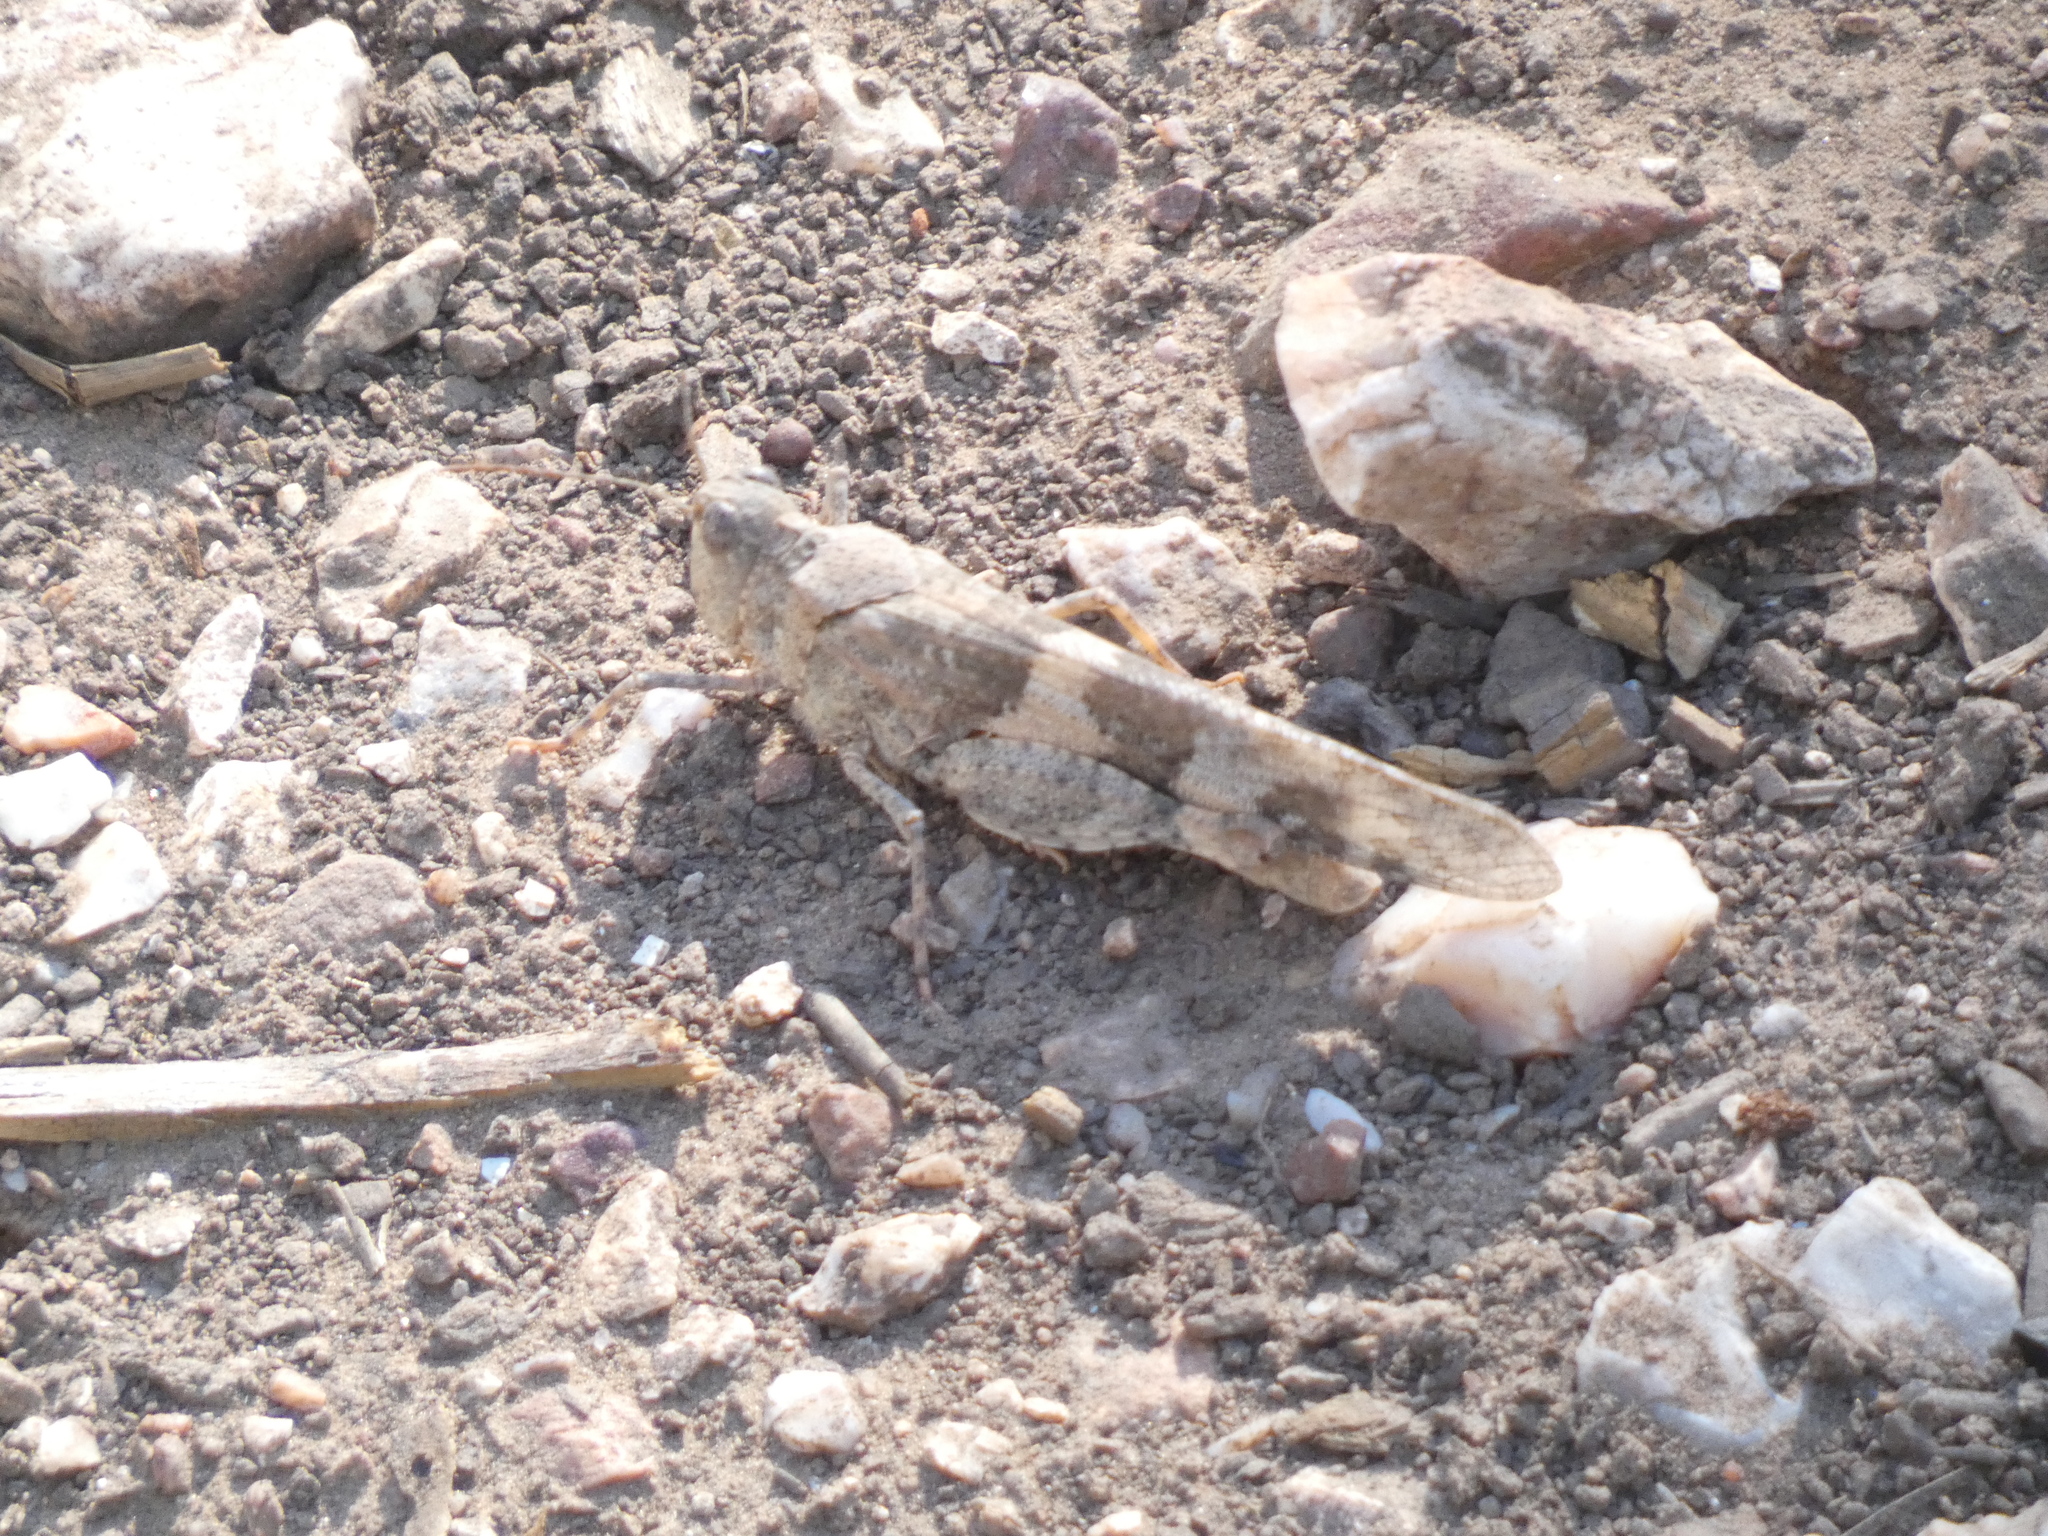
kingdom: Animalia
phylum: Arthropoda
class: Insecta
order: Orthoptera
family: Acrididae
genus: Trimerotropis
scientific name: Trimerotropis pallidipennis
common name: Pallid-winged grasshopper
